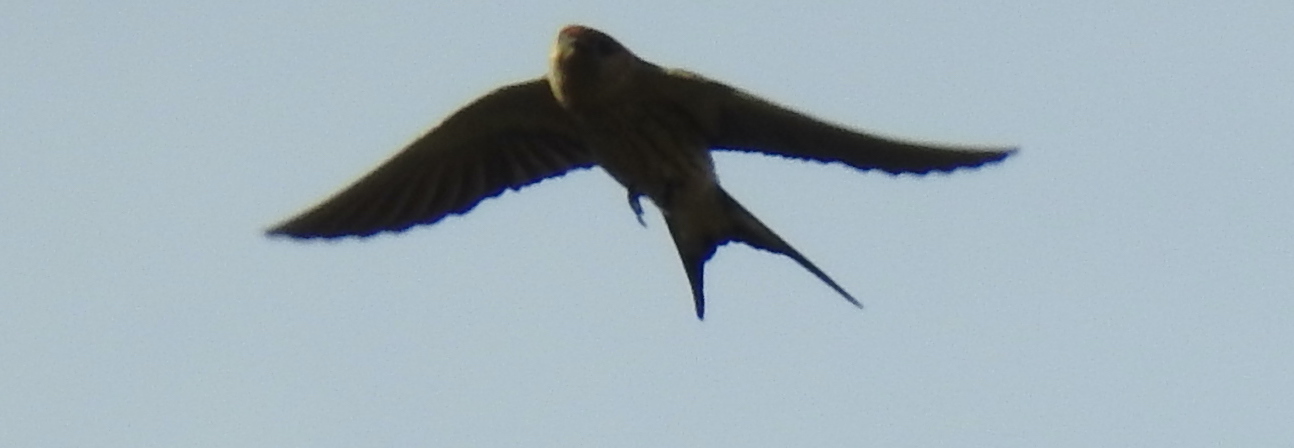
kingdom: Animalia
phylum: Chordata
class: Aves
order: Passeriformes
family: Hirundinidae
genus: Cecropis
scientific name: Cecropis cucullata
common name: Greater striped-swallow
